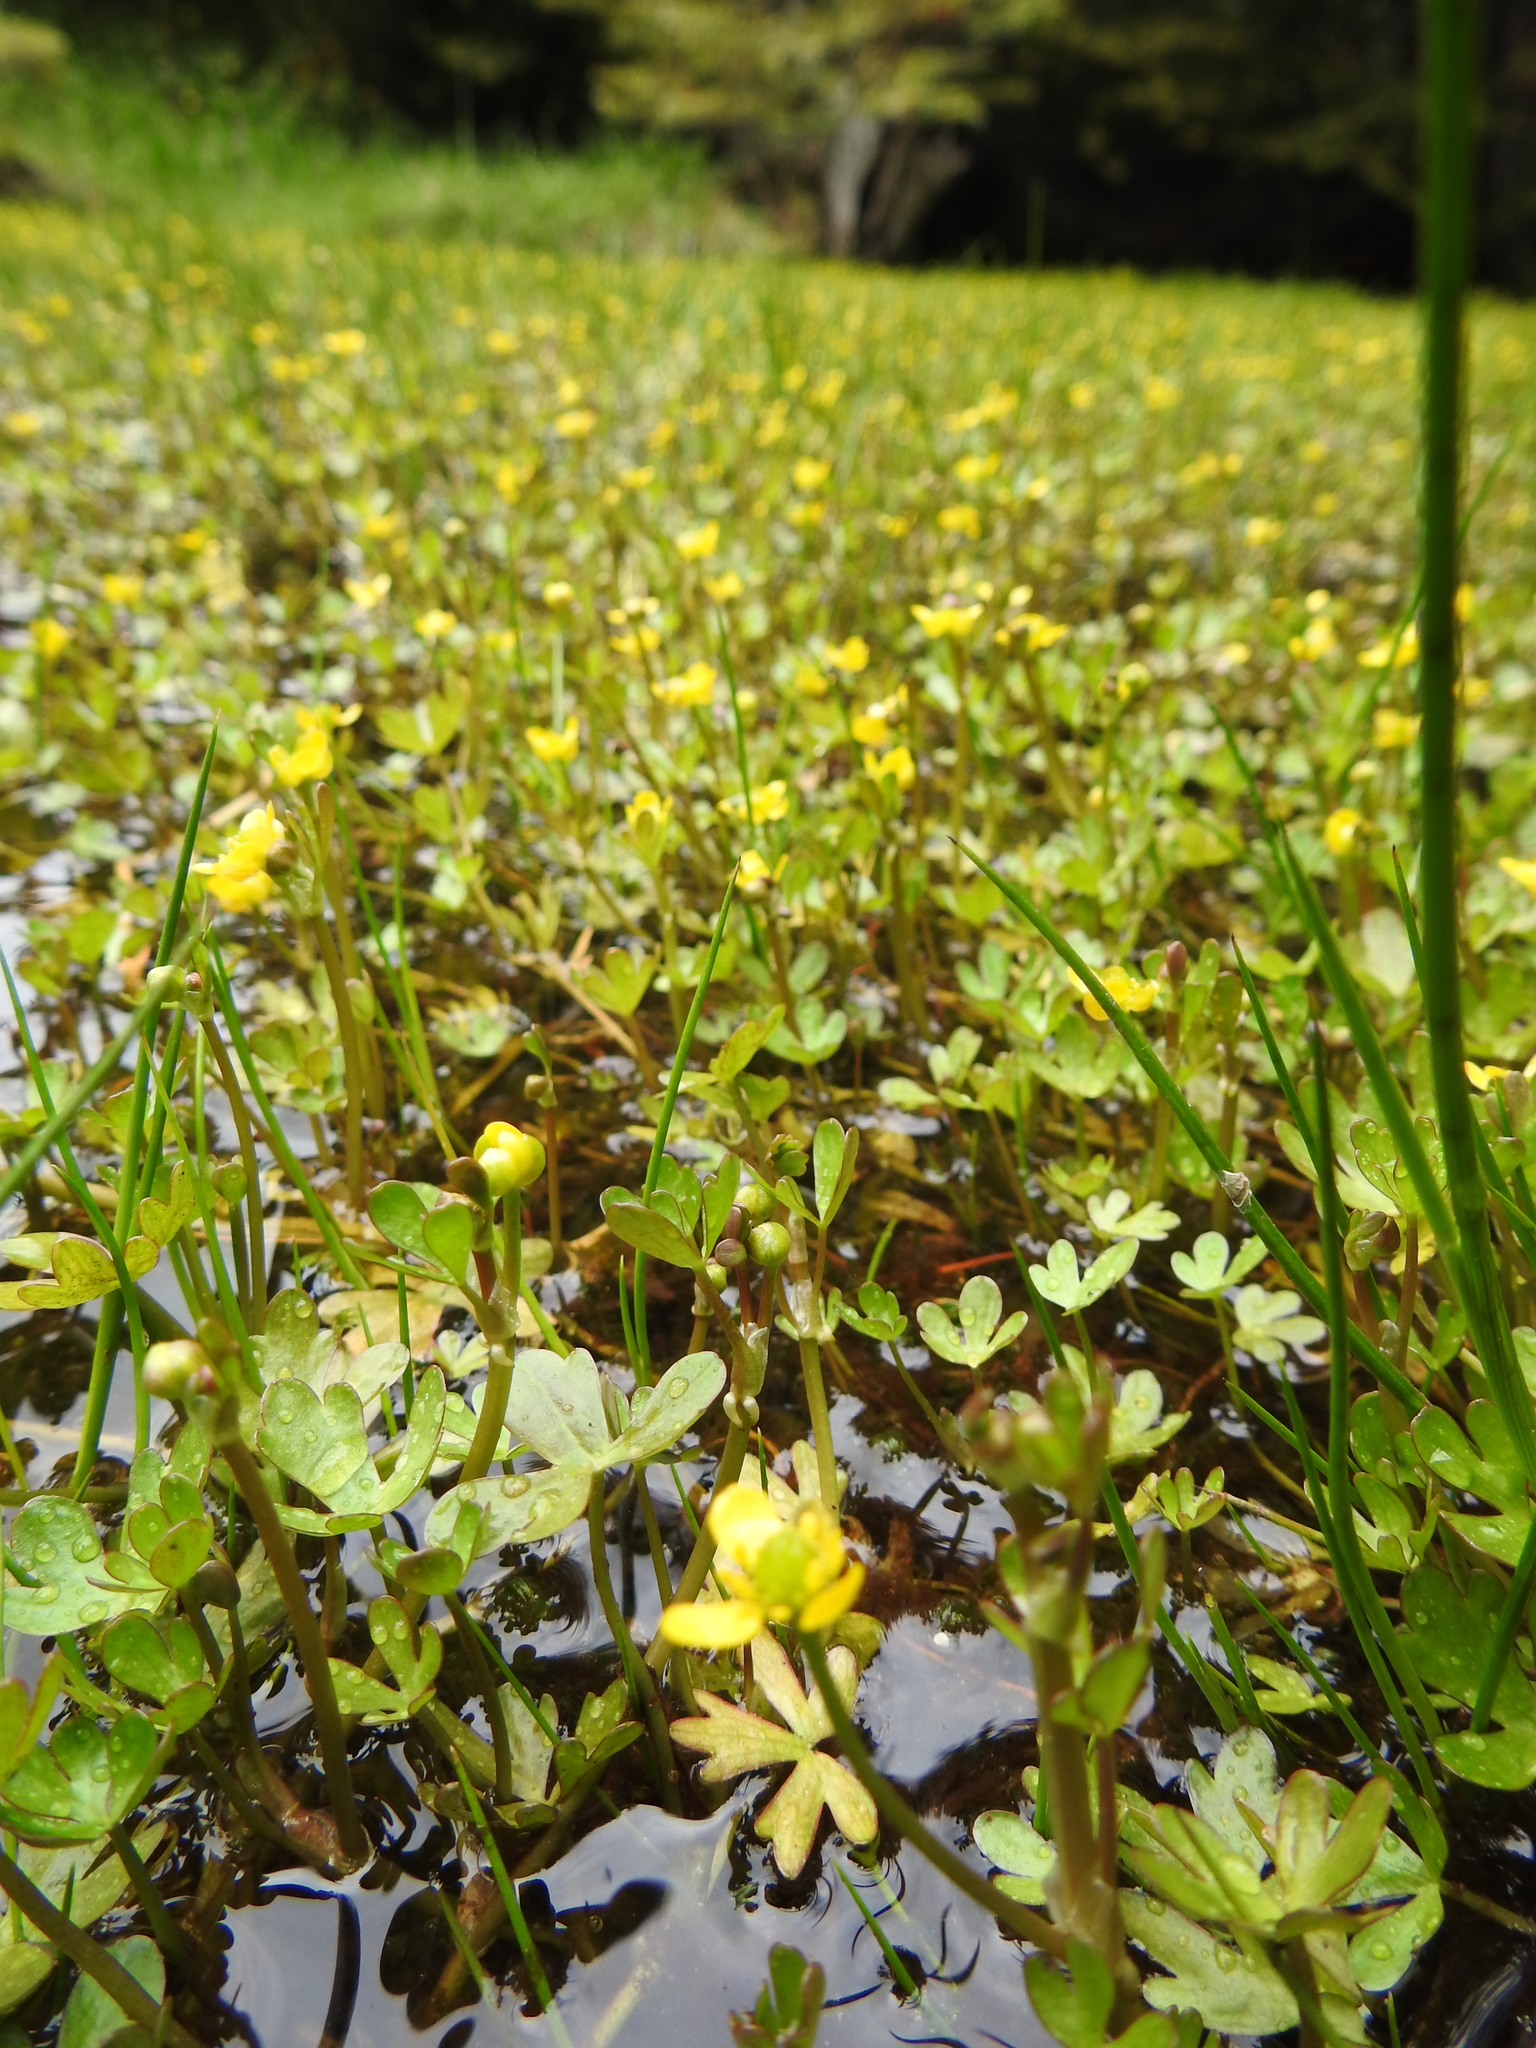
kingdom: Plantae
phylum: Tracheophyta
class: Magnoliopsida
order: Ranunculales
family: Ranunculaceae
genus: Ranunculus
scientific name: Ranunculus fuegianus
